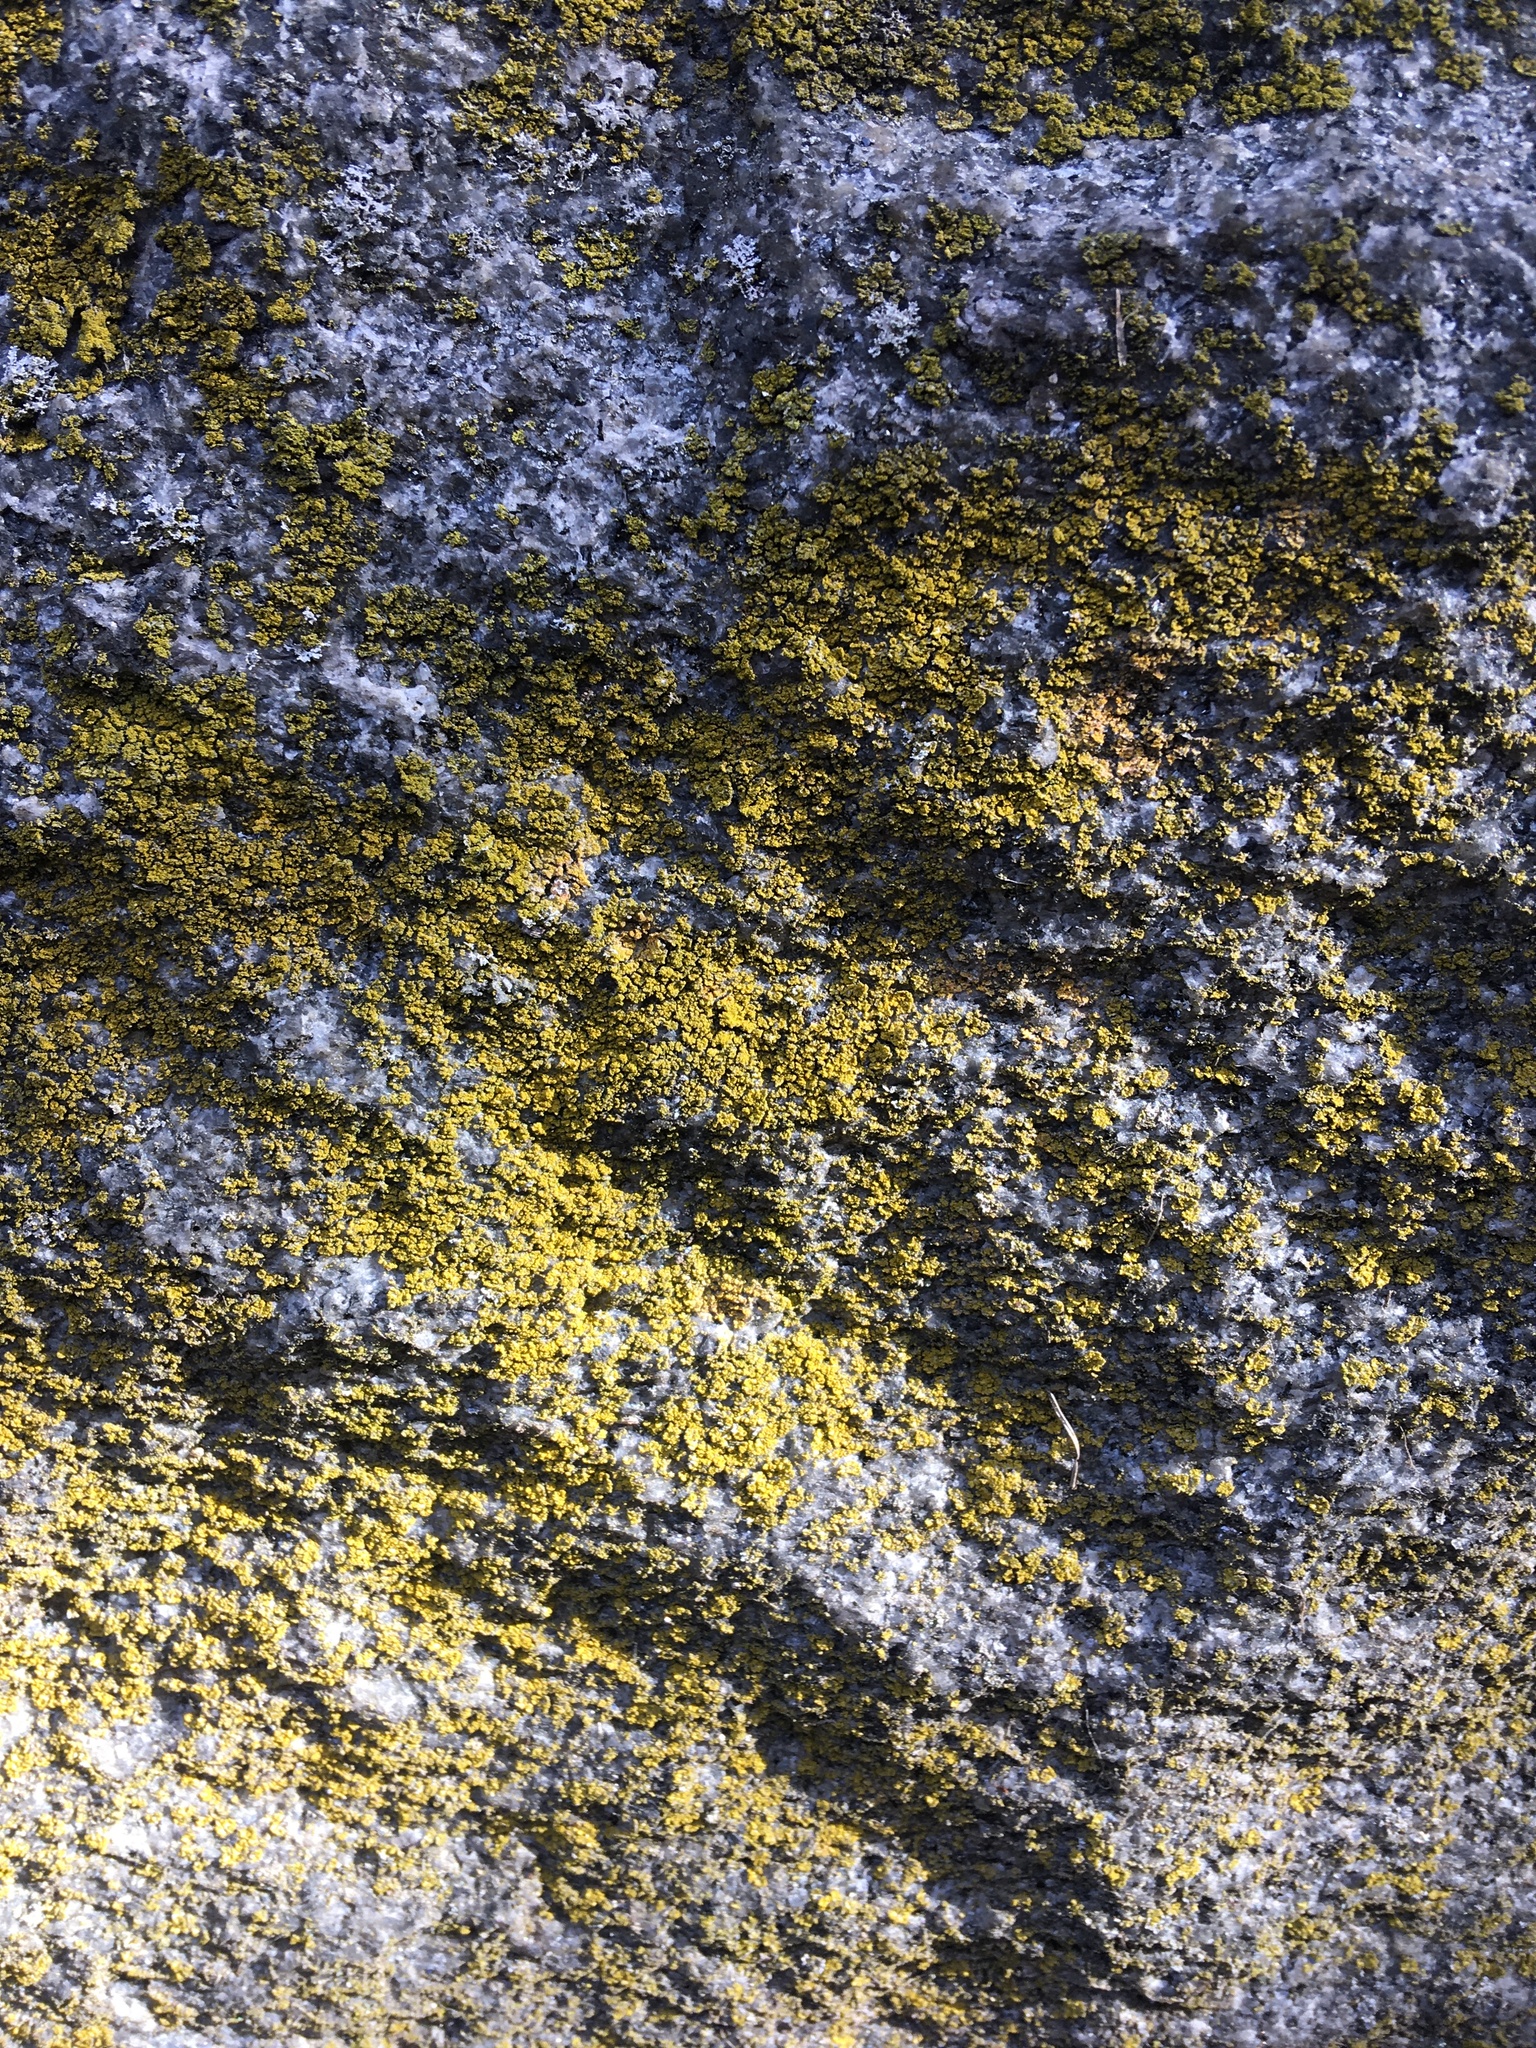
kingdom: Fungi
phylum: Ascomycota
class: Candelariomycetes
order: Candelariales
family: Candelariaceae
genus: Candelaria
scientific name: Candelaria concolor
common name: Candleflame lichen
